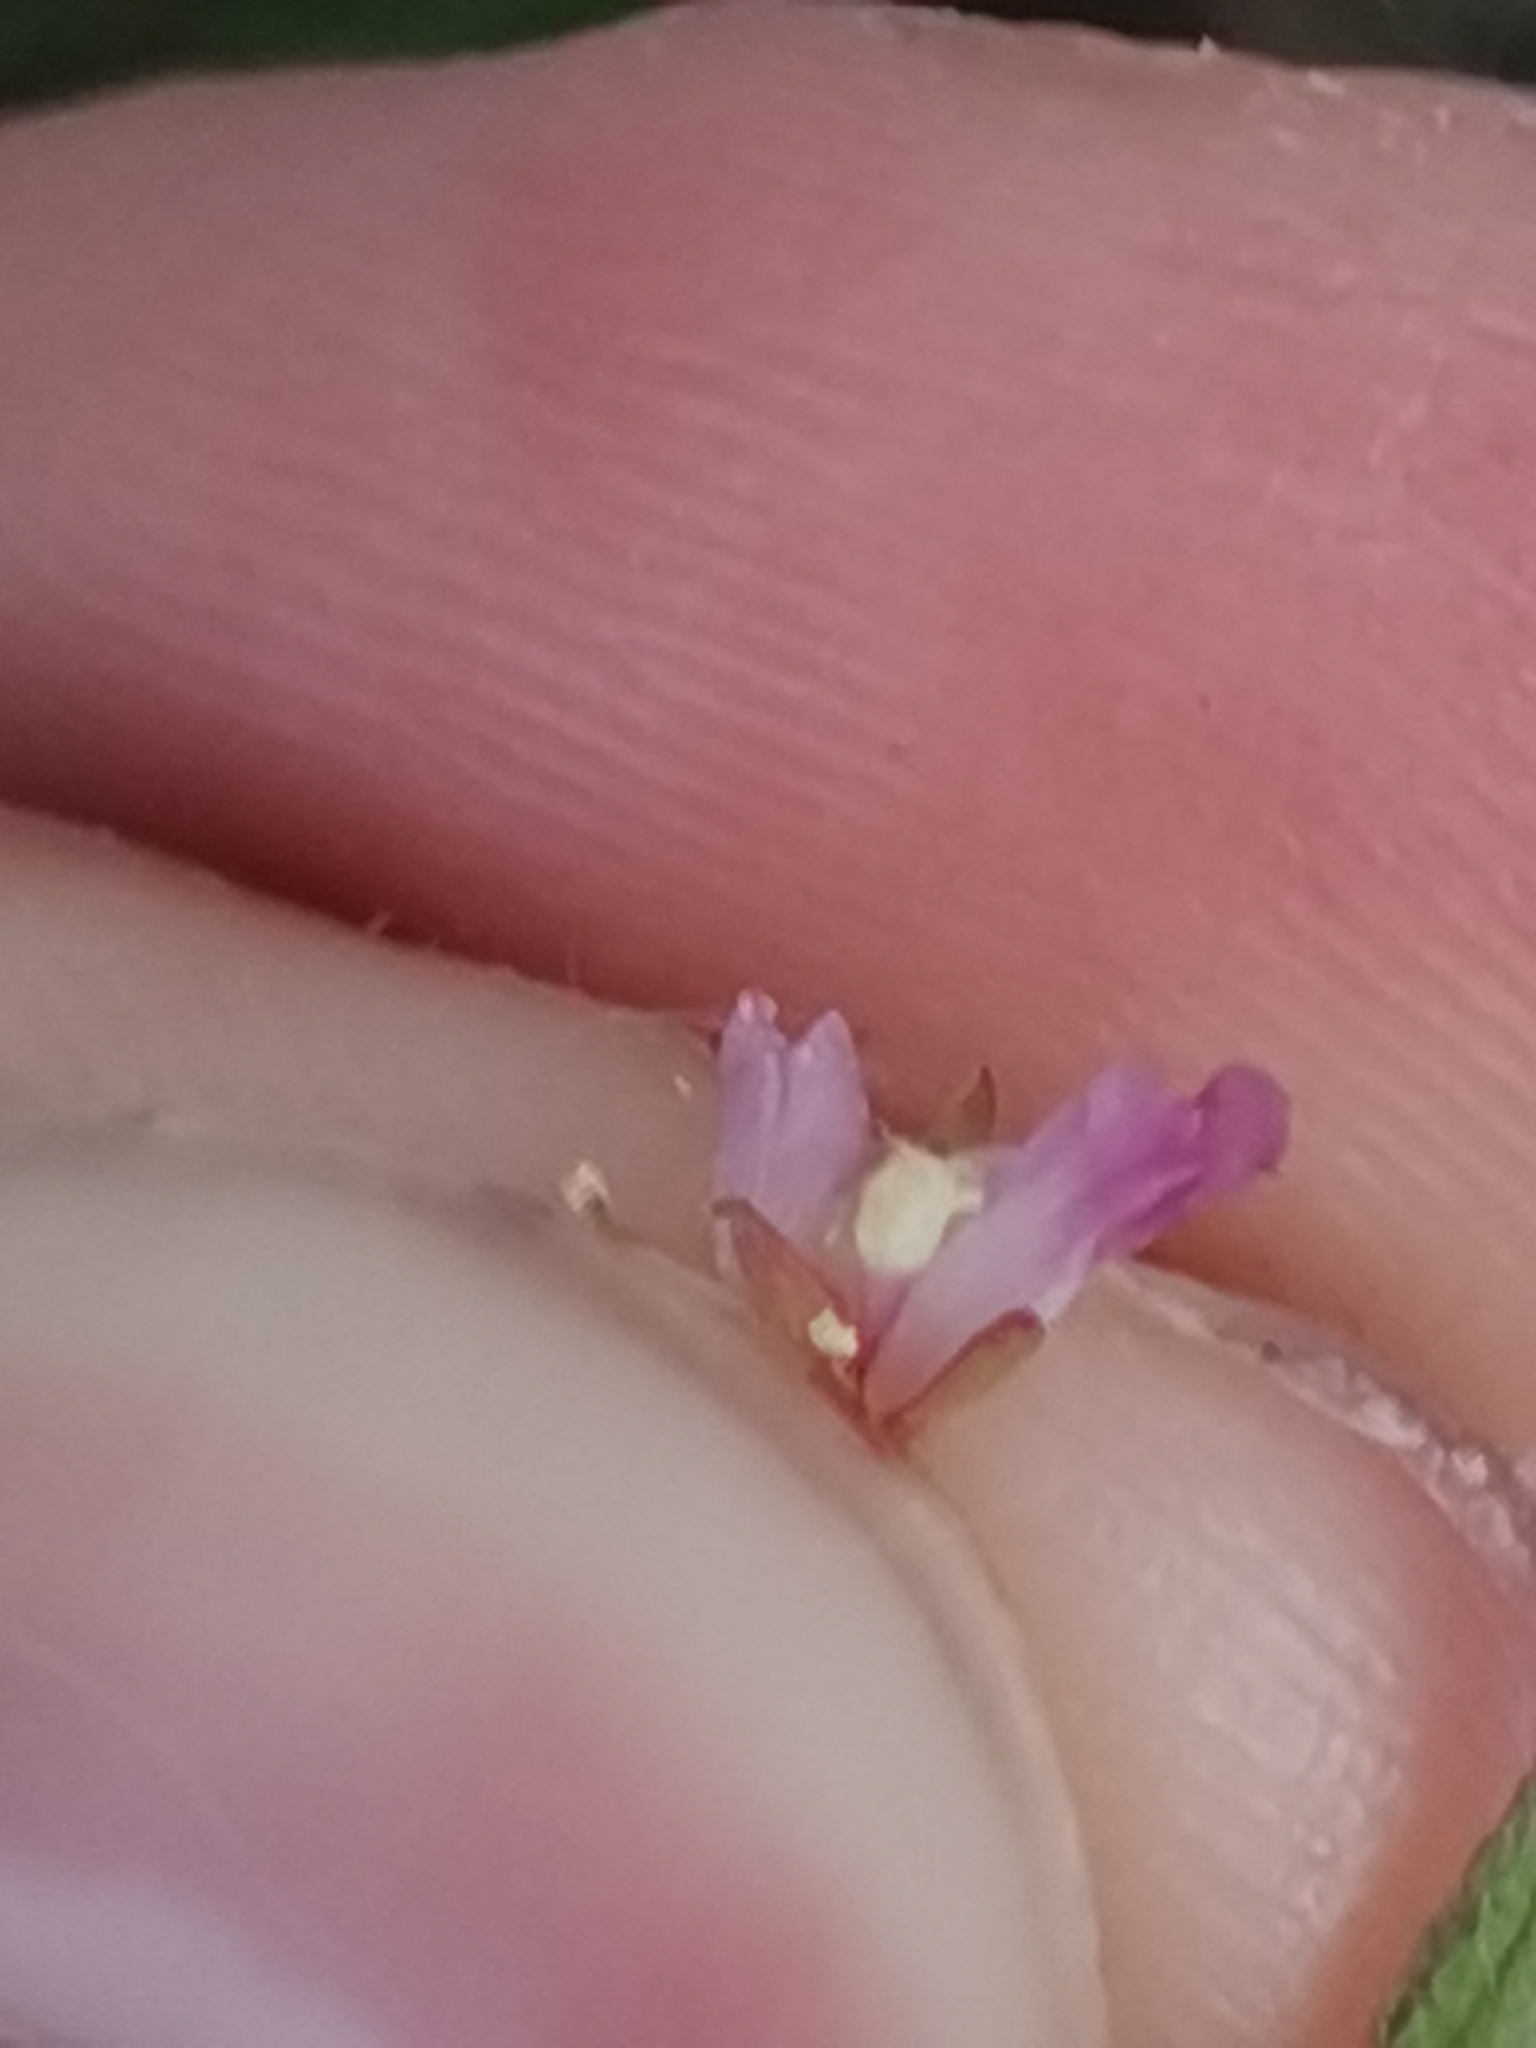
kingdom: Plantae
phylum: Tracheophyta
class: Magnoliopsida
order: Myrtales
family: Onagraceae
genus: Epilobium
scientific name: Epilobium ciliatum
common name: American willowherb
